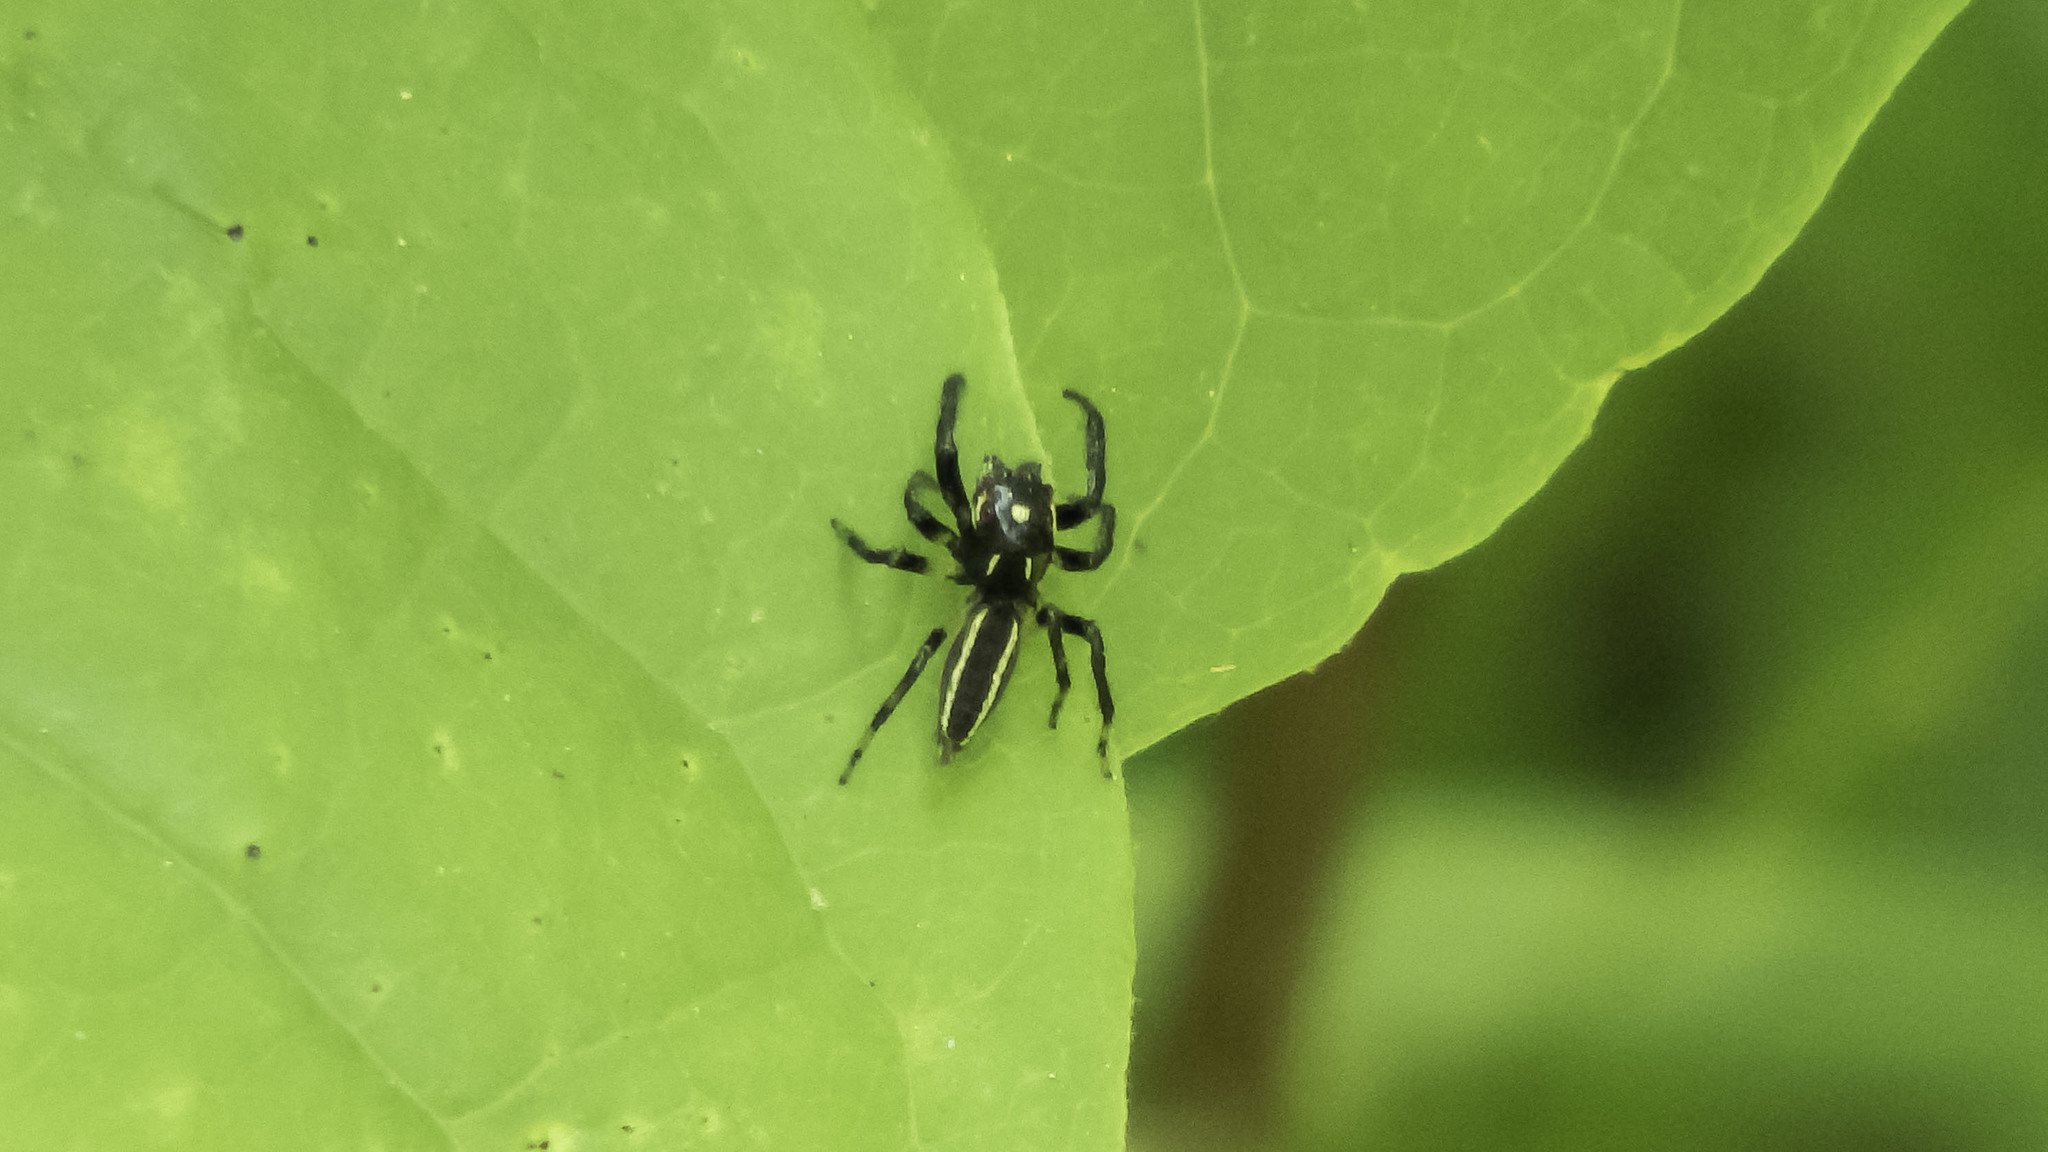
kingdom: Animalia
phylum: Arthropoda
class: Arachnida
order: Araneae
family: Salticidae
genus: Colonus
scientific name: Colonus sylvanus
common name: Jumping spiders
